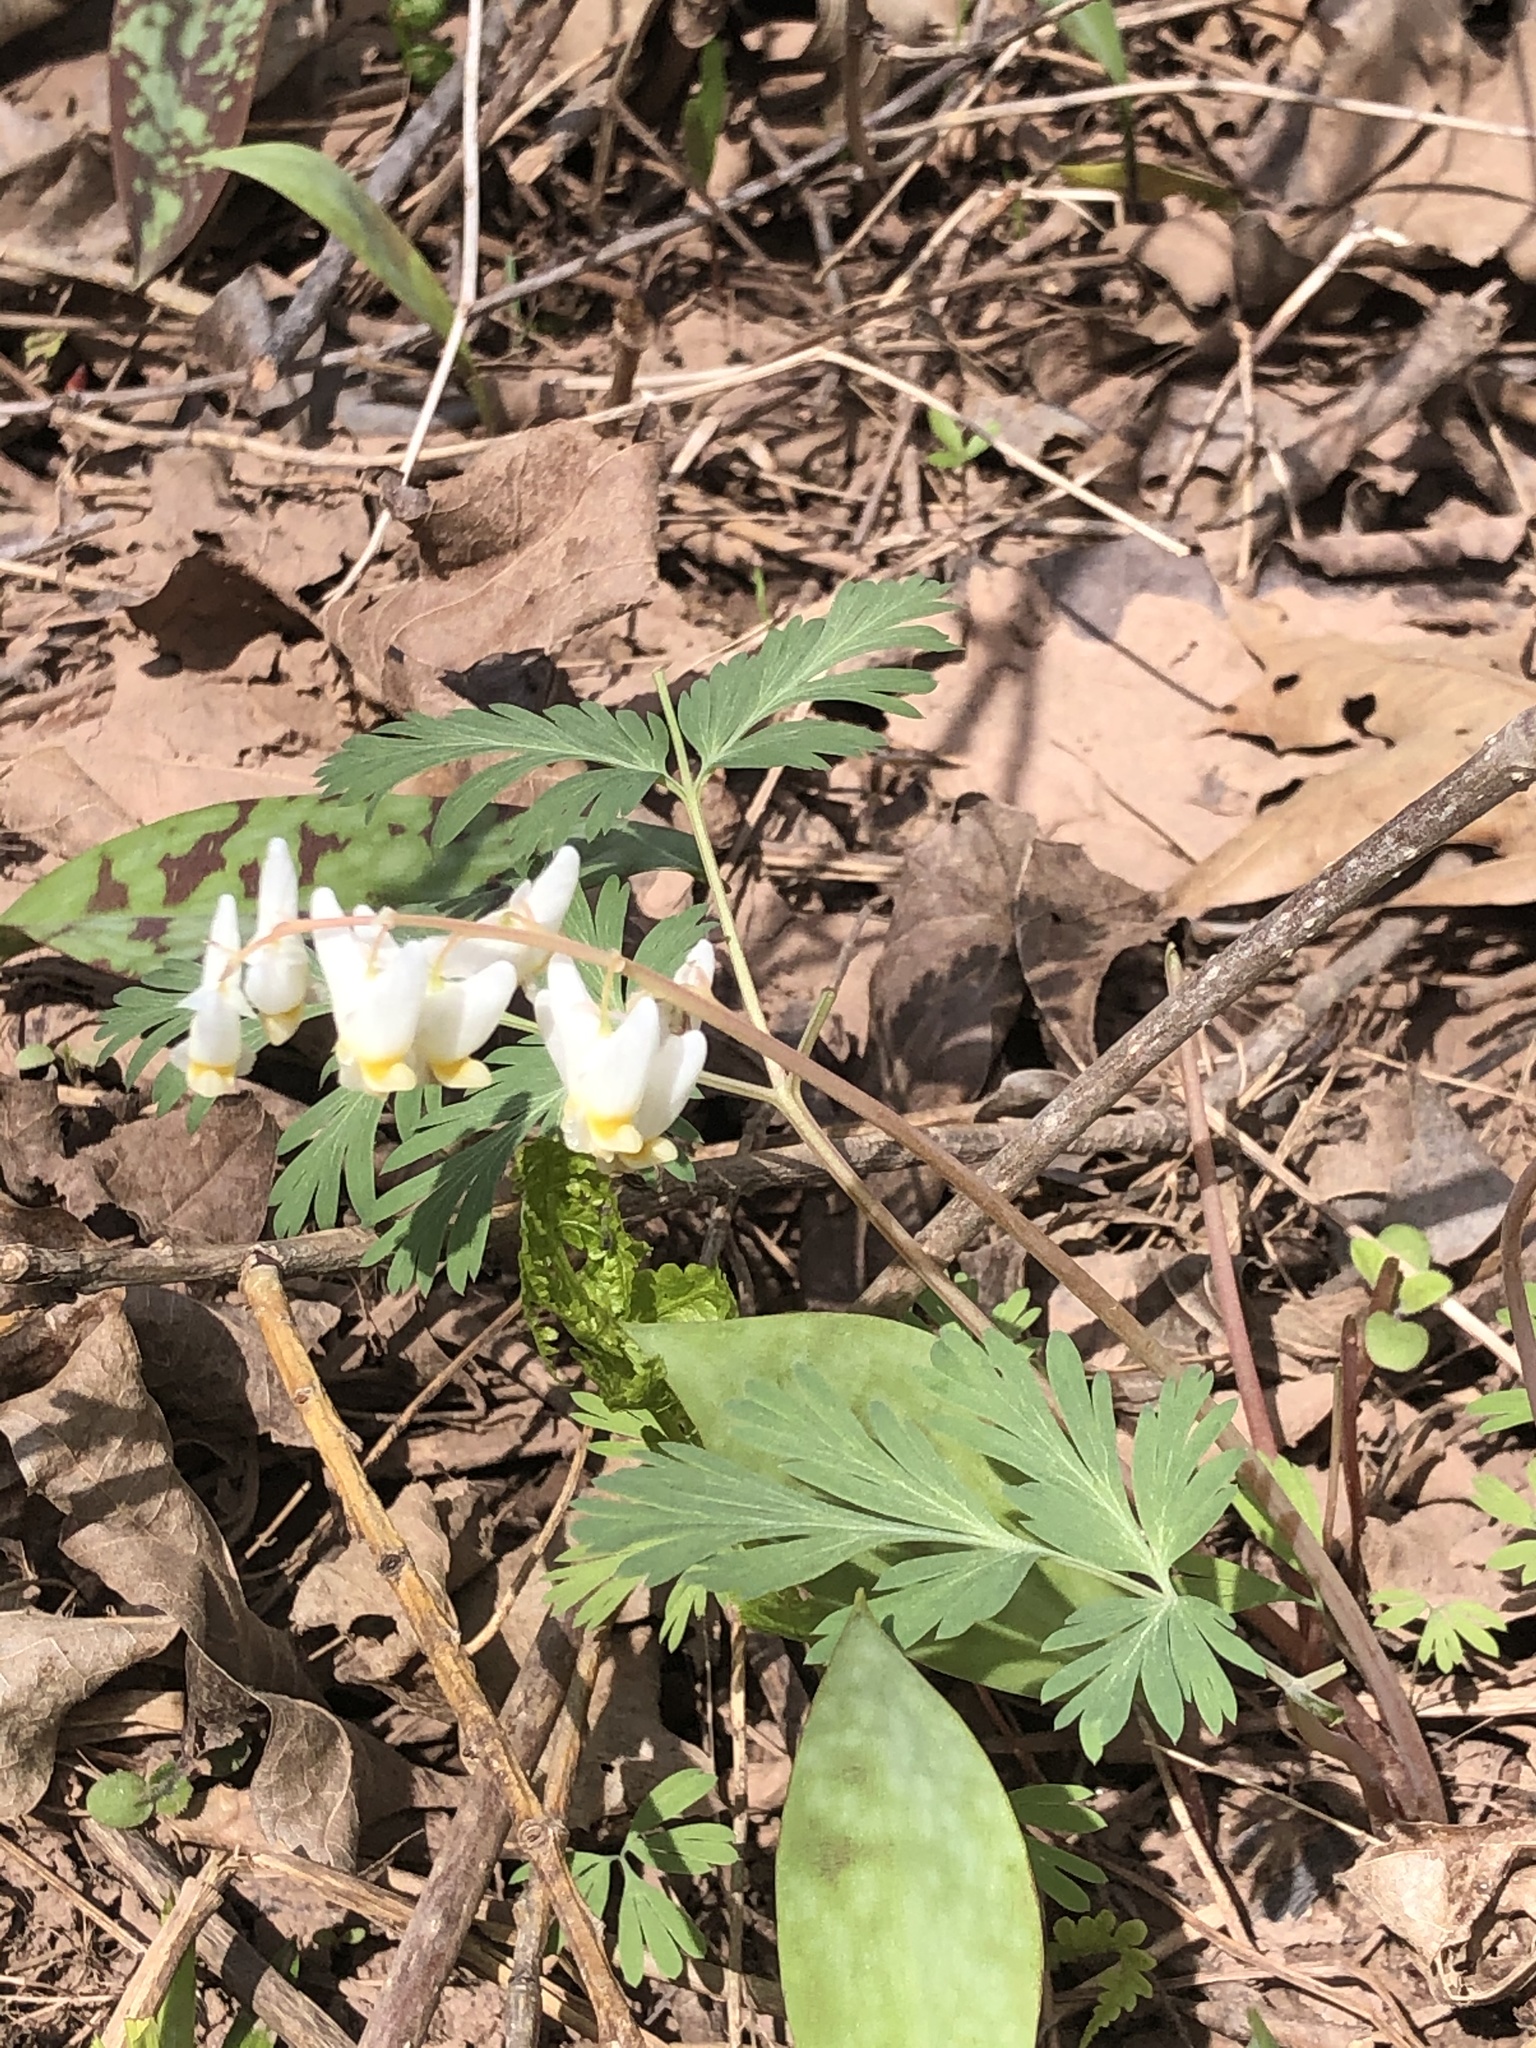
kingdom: Plantae
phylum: Tracheophyta
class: Magnoliopsida
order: Ranunculales
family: Papaveraceae
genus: Dicentra
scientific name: Dicentra cucullaria
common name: Dutchman's breeches
